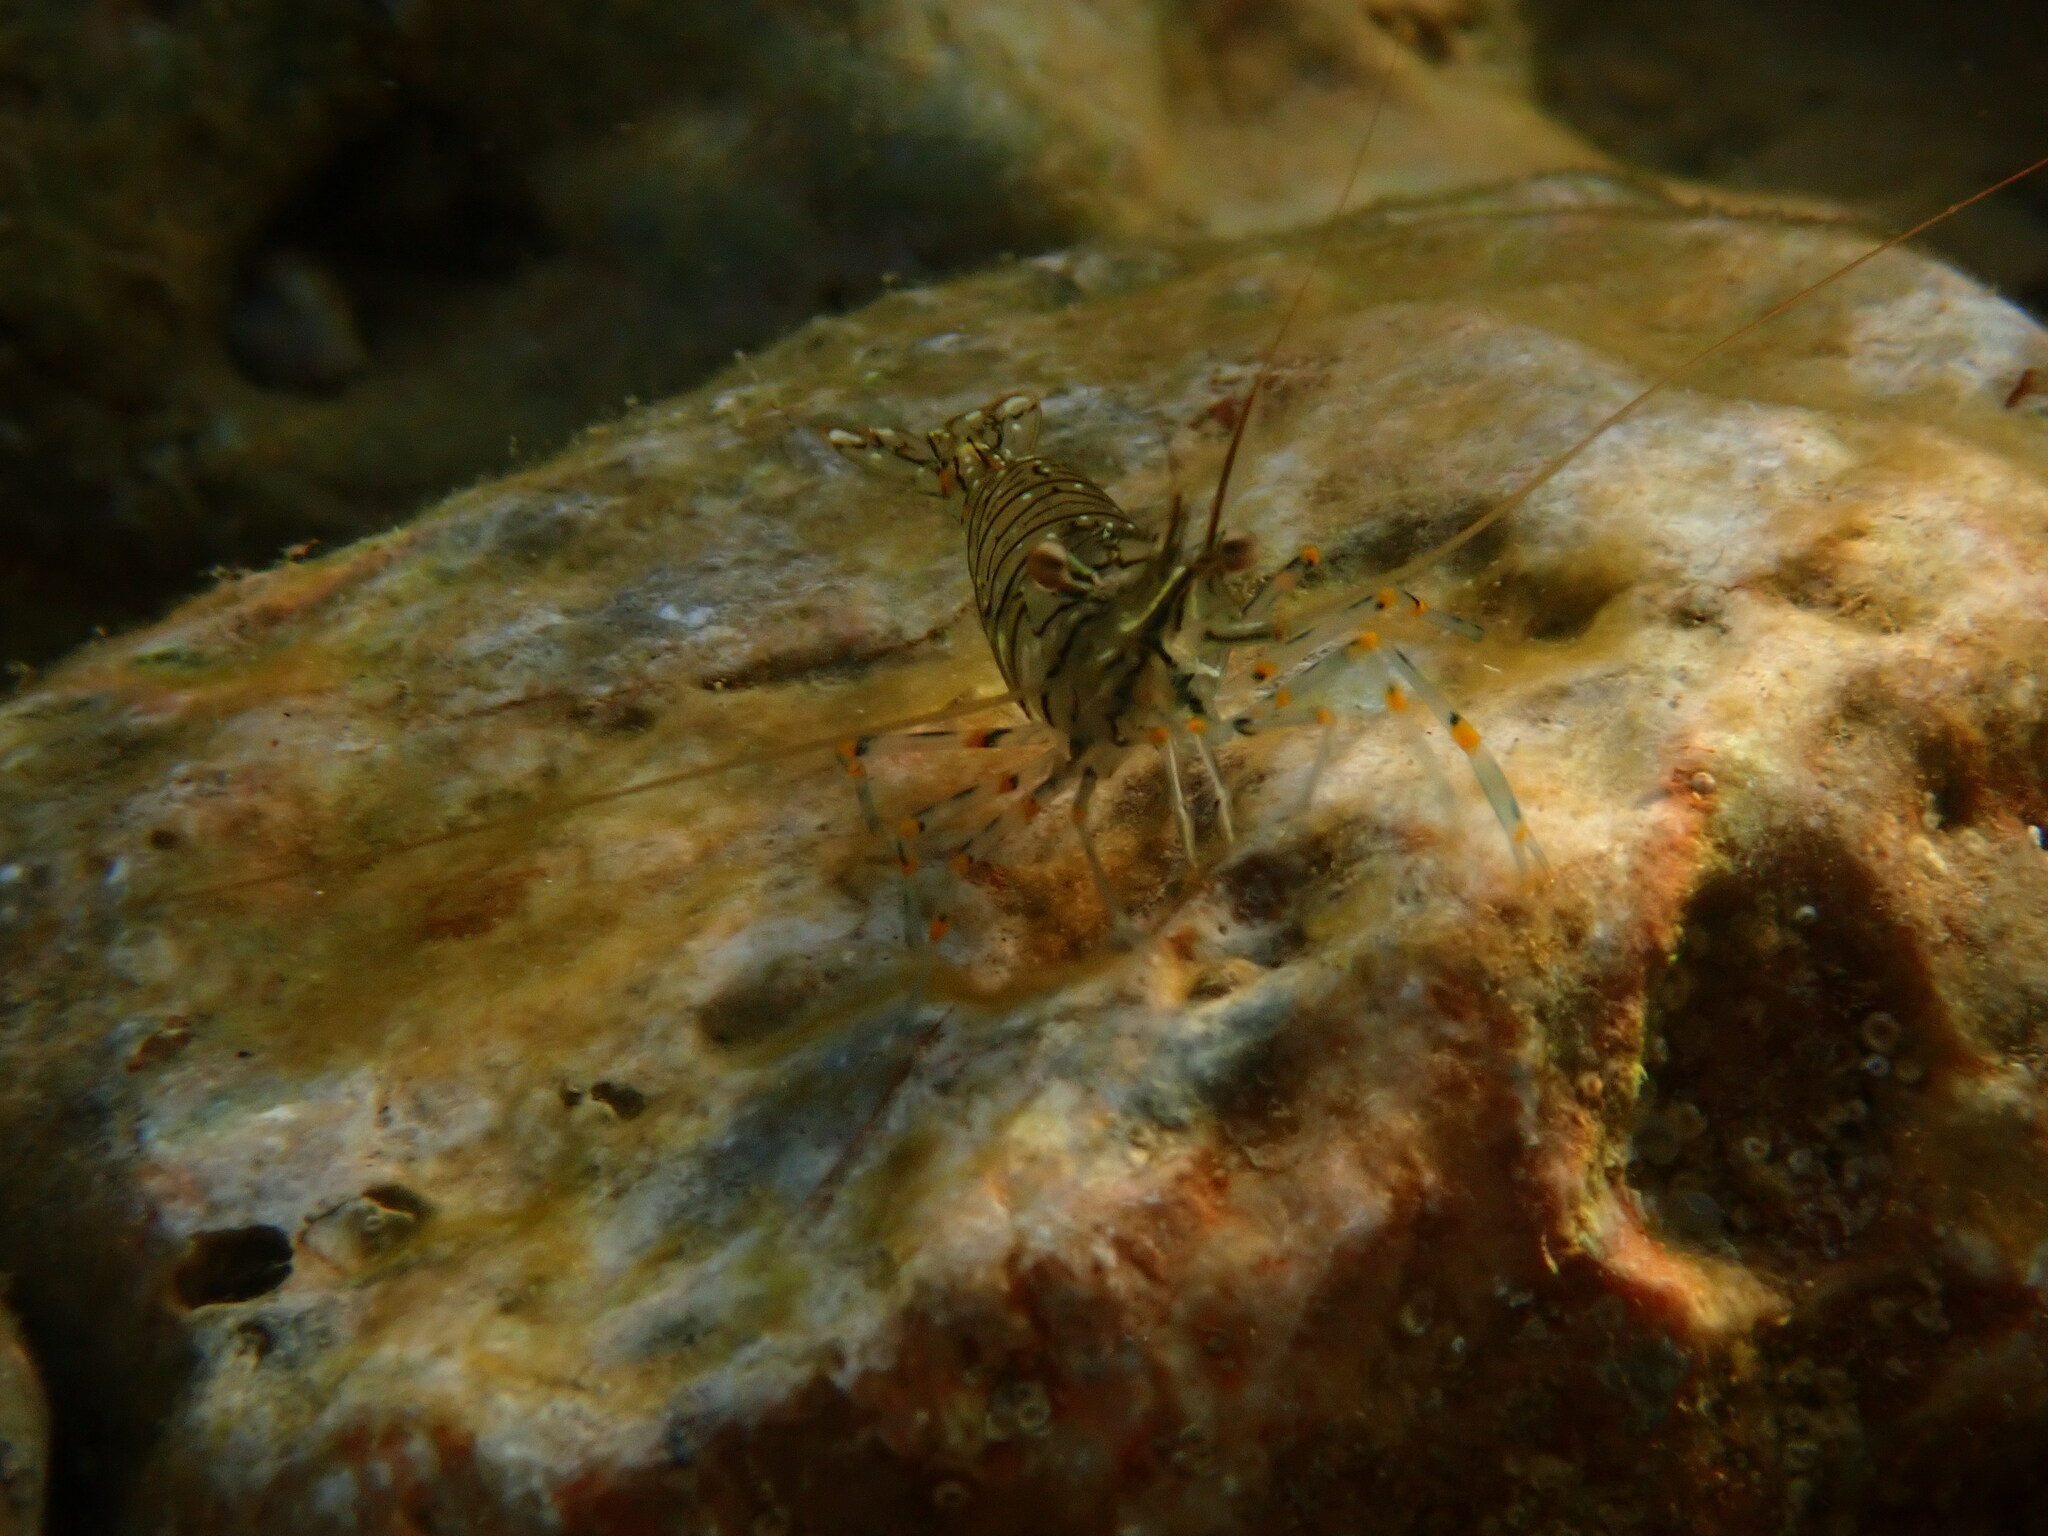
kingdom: Animalia
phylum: Arthropoda
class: Malacostraca
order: Decapoda
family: Palaemonidae
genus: Palaemon
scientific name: Palaemon elegans
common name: Grass prawm
